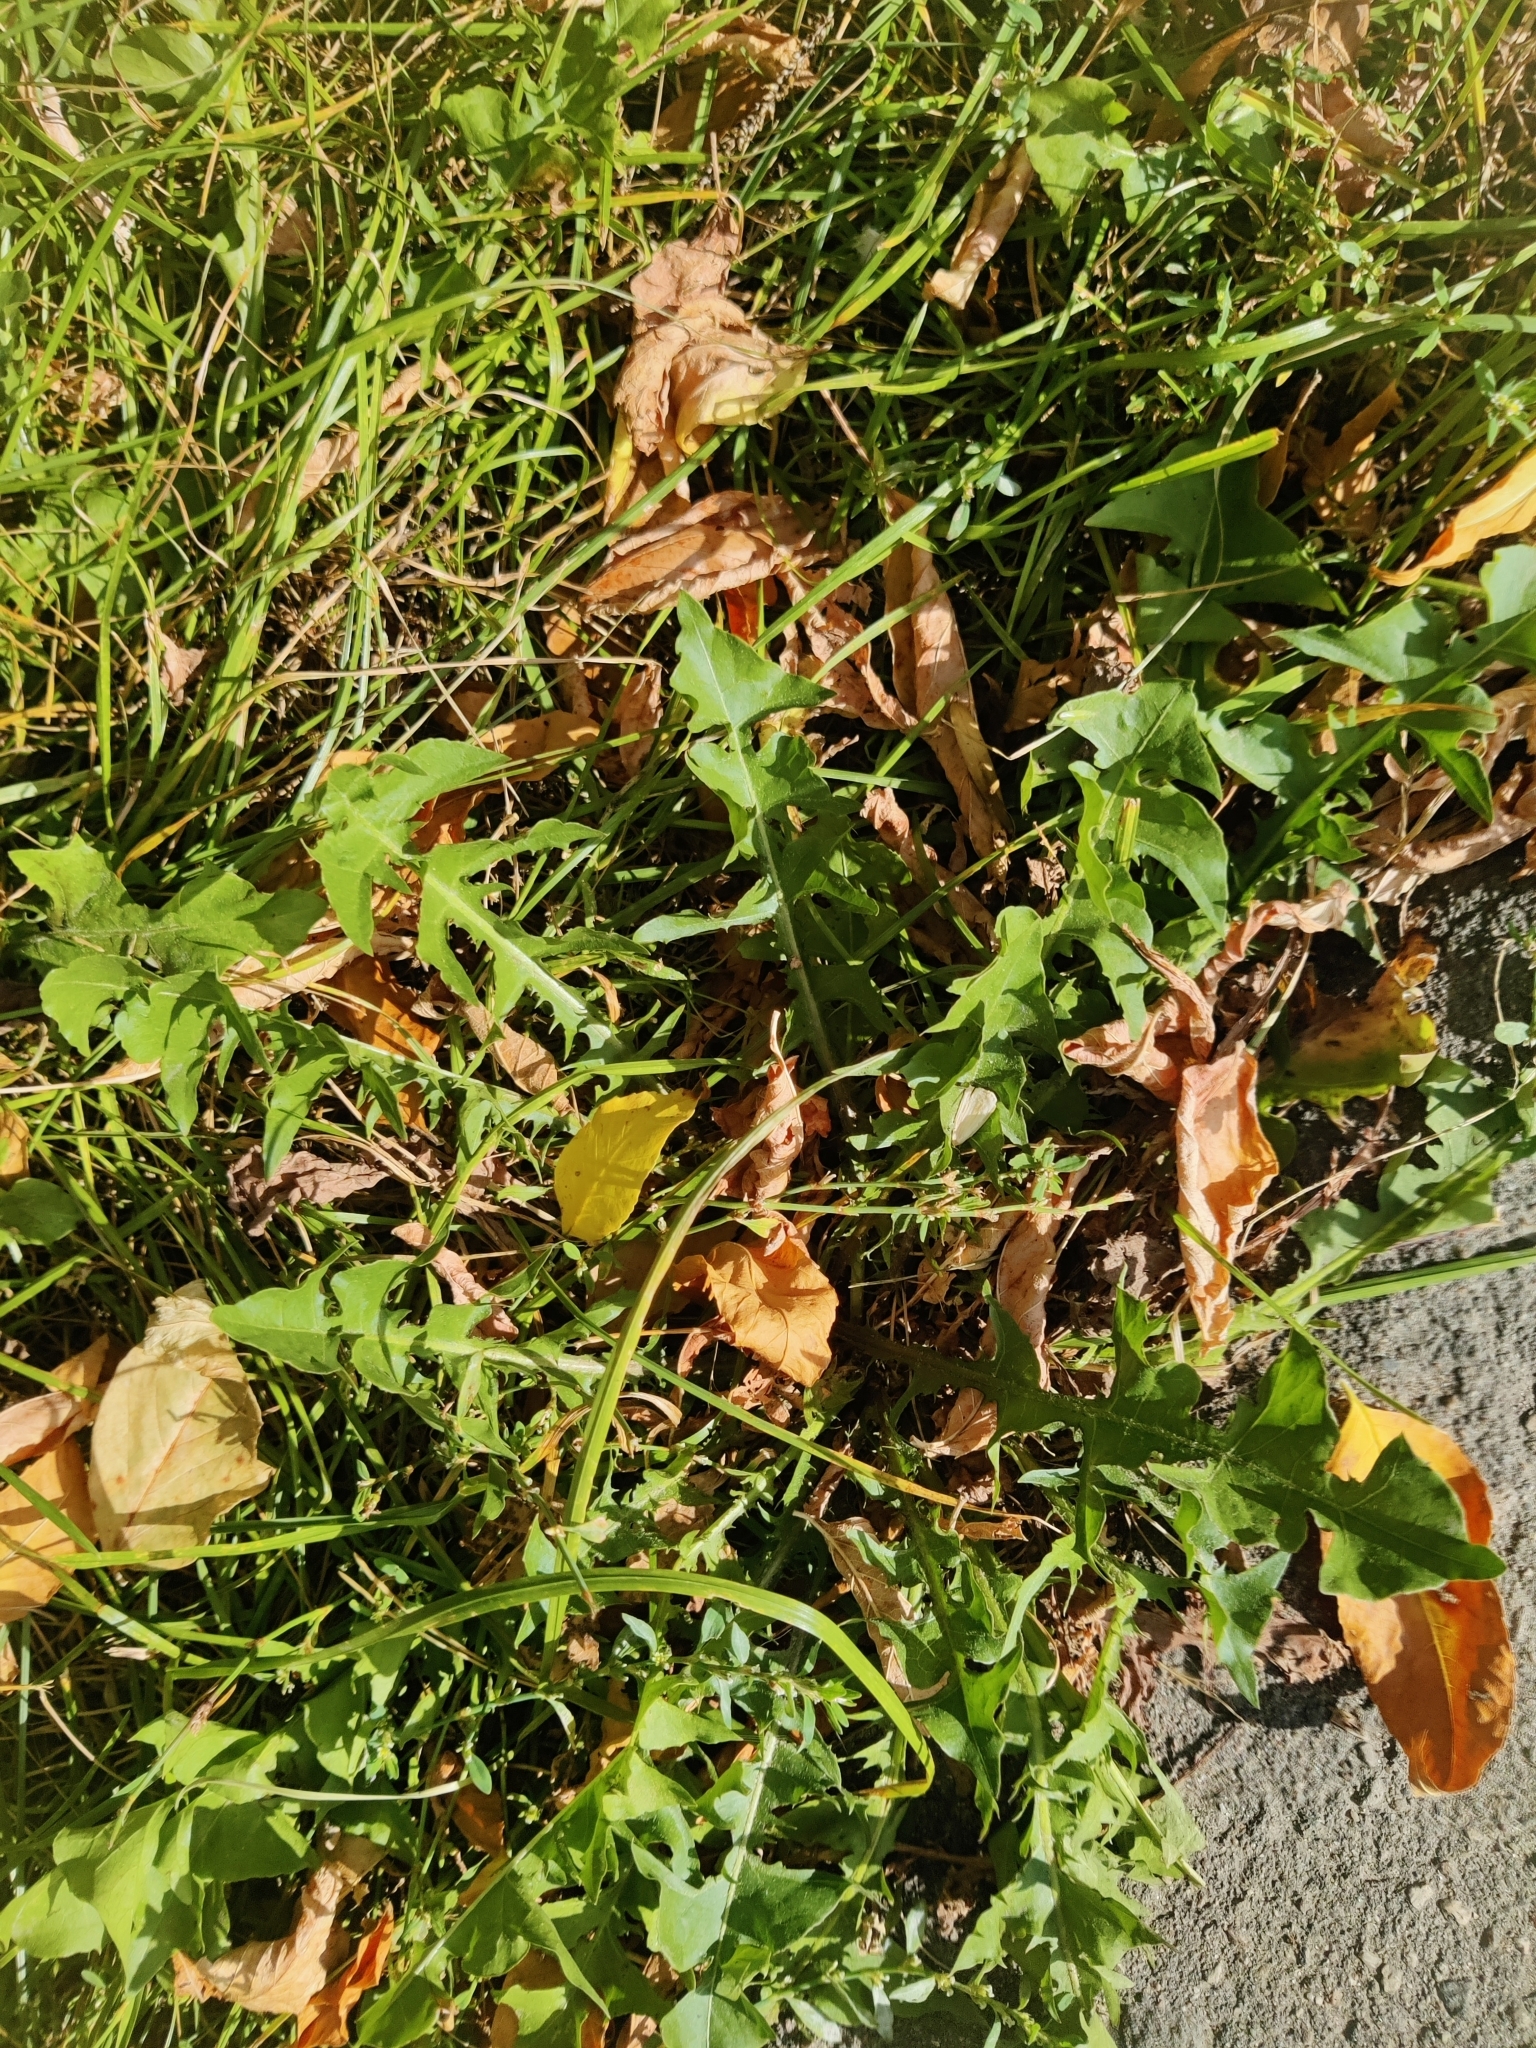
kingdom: Plantae
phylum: Tracheophyta
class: Magnoliopsida
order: Asterales
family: Asteraceae
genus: Taraxacum
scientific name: Taraxacum officinale
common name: Common dandelion
